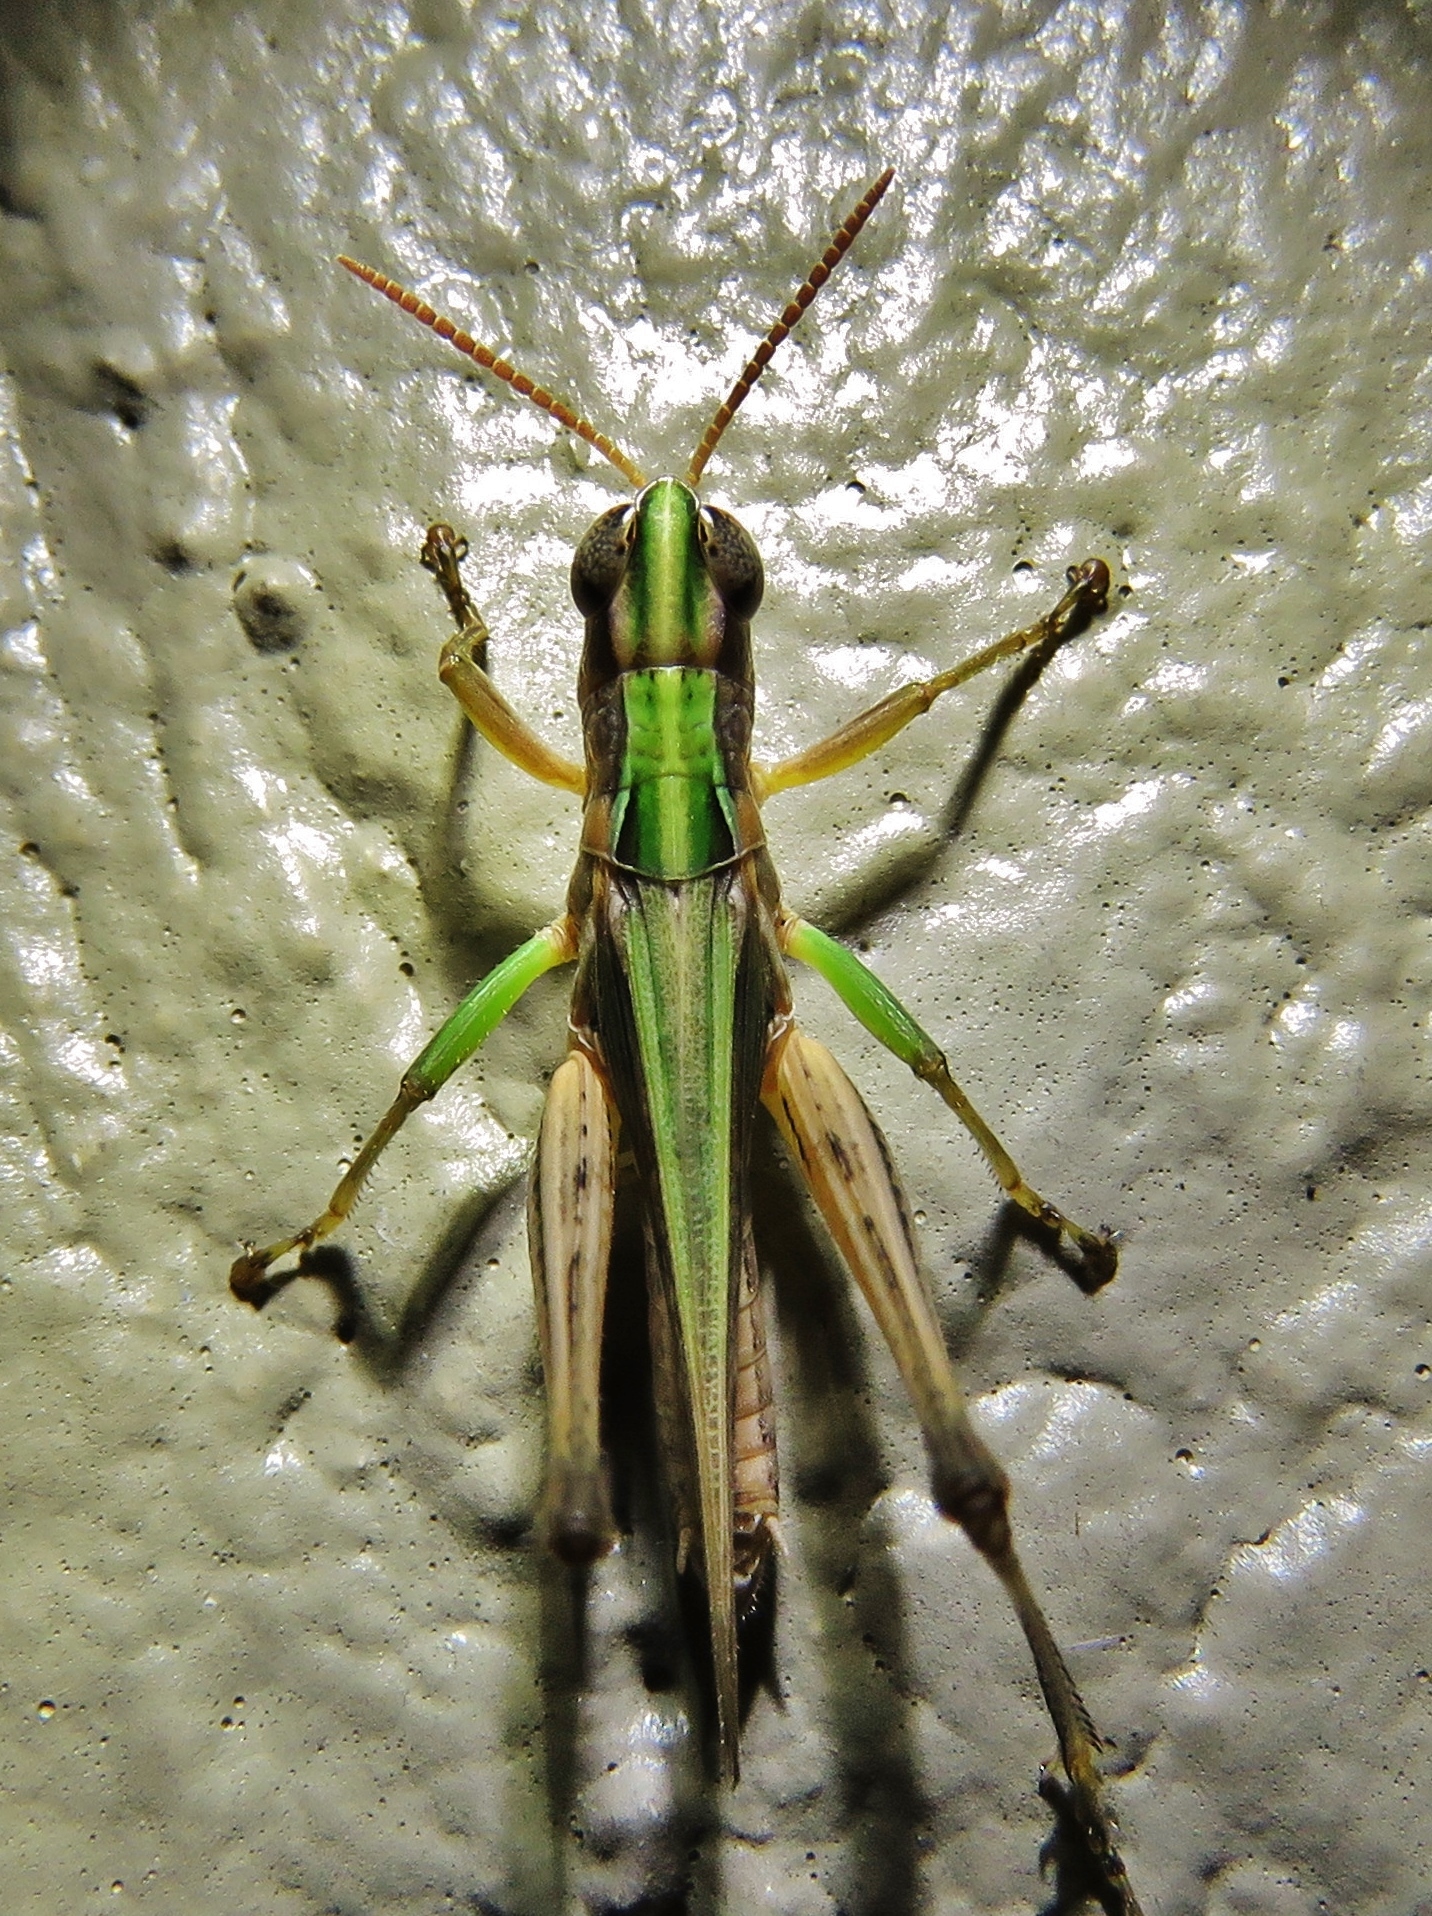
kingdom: Animalia
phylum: Arthropoda
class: Insecta
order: Orthoptera
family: Acrididae
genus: Orphulella
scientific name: Orphulella speciosa
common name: Pasture grasshopper
